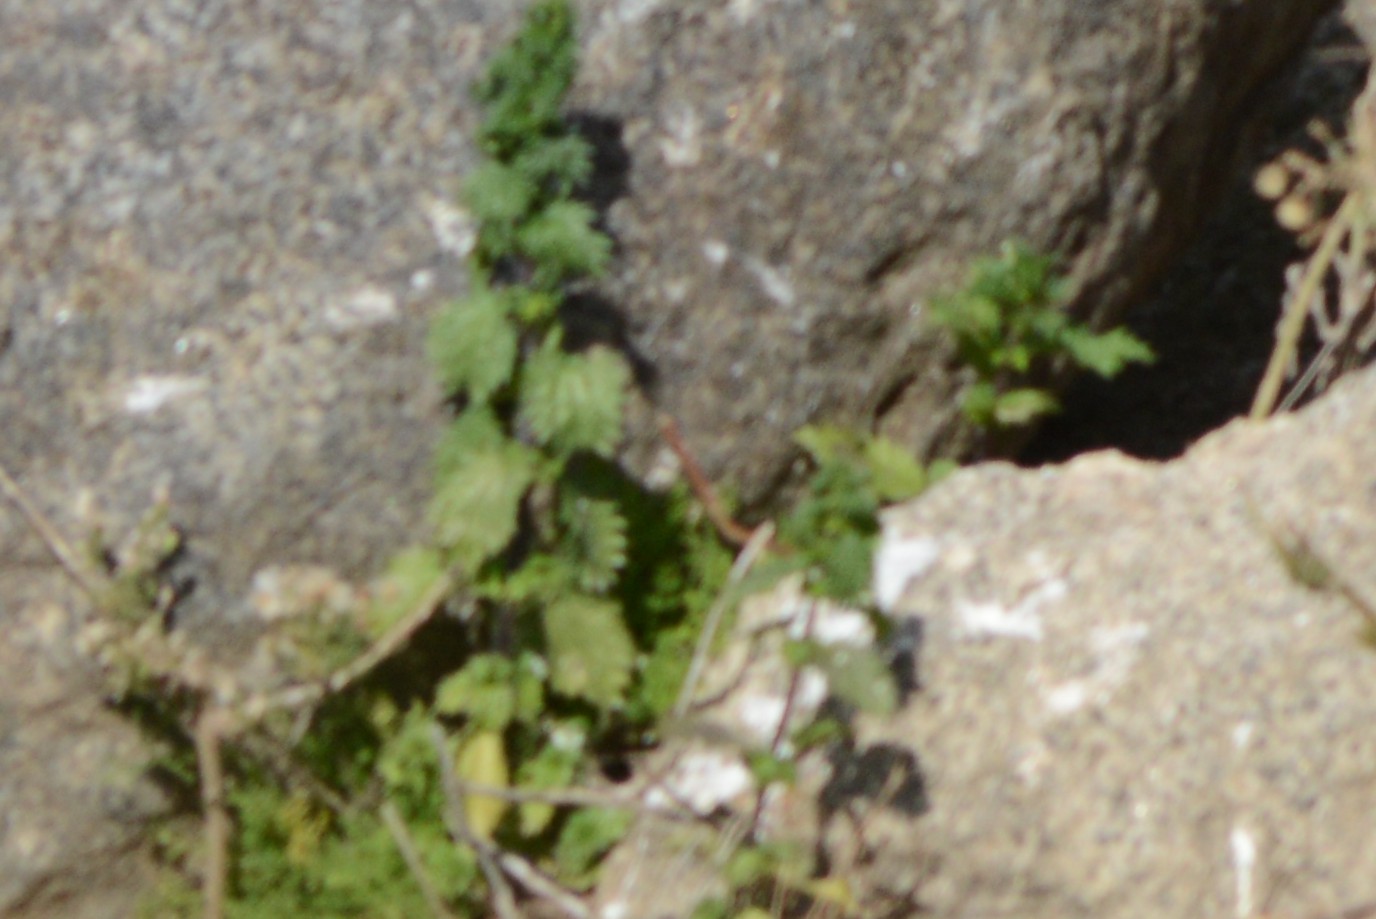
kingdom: Plantae
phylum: Tracheophyta
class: Magnoliopsida
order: Rosales
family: Urticaceae
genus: Urtica
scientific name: Urtica urens
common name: Dwarf nettle
